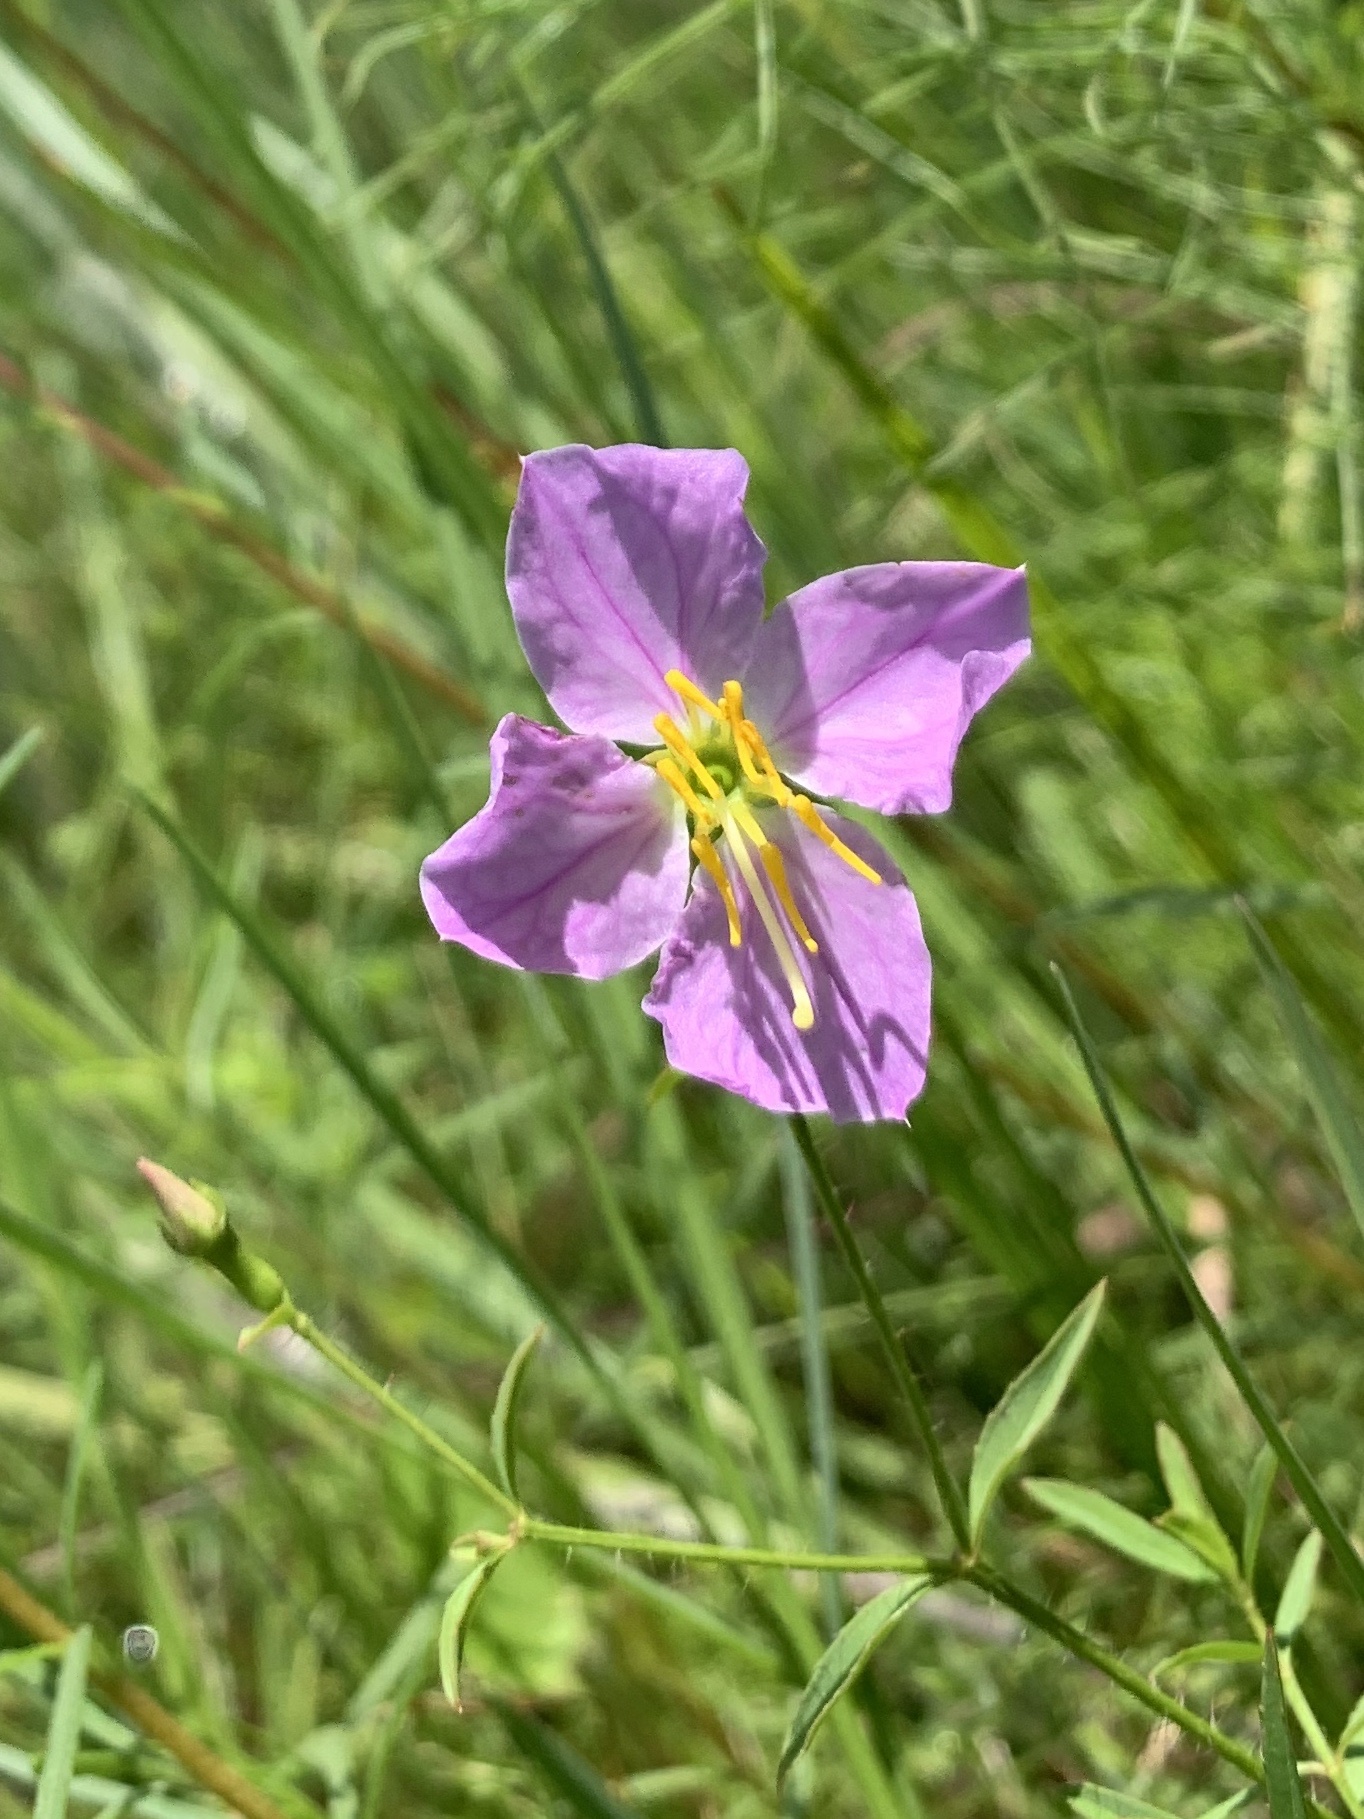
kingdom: Plantae
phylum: Tracheophyta
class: Magnoliopsida
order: Myrtales
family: Melastomataceae
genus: Rhexia
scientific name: Rhexia mariana
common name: Dull meadow-pitcher
